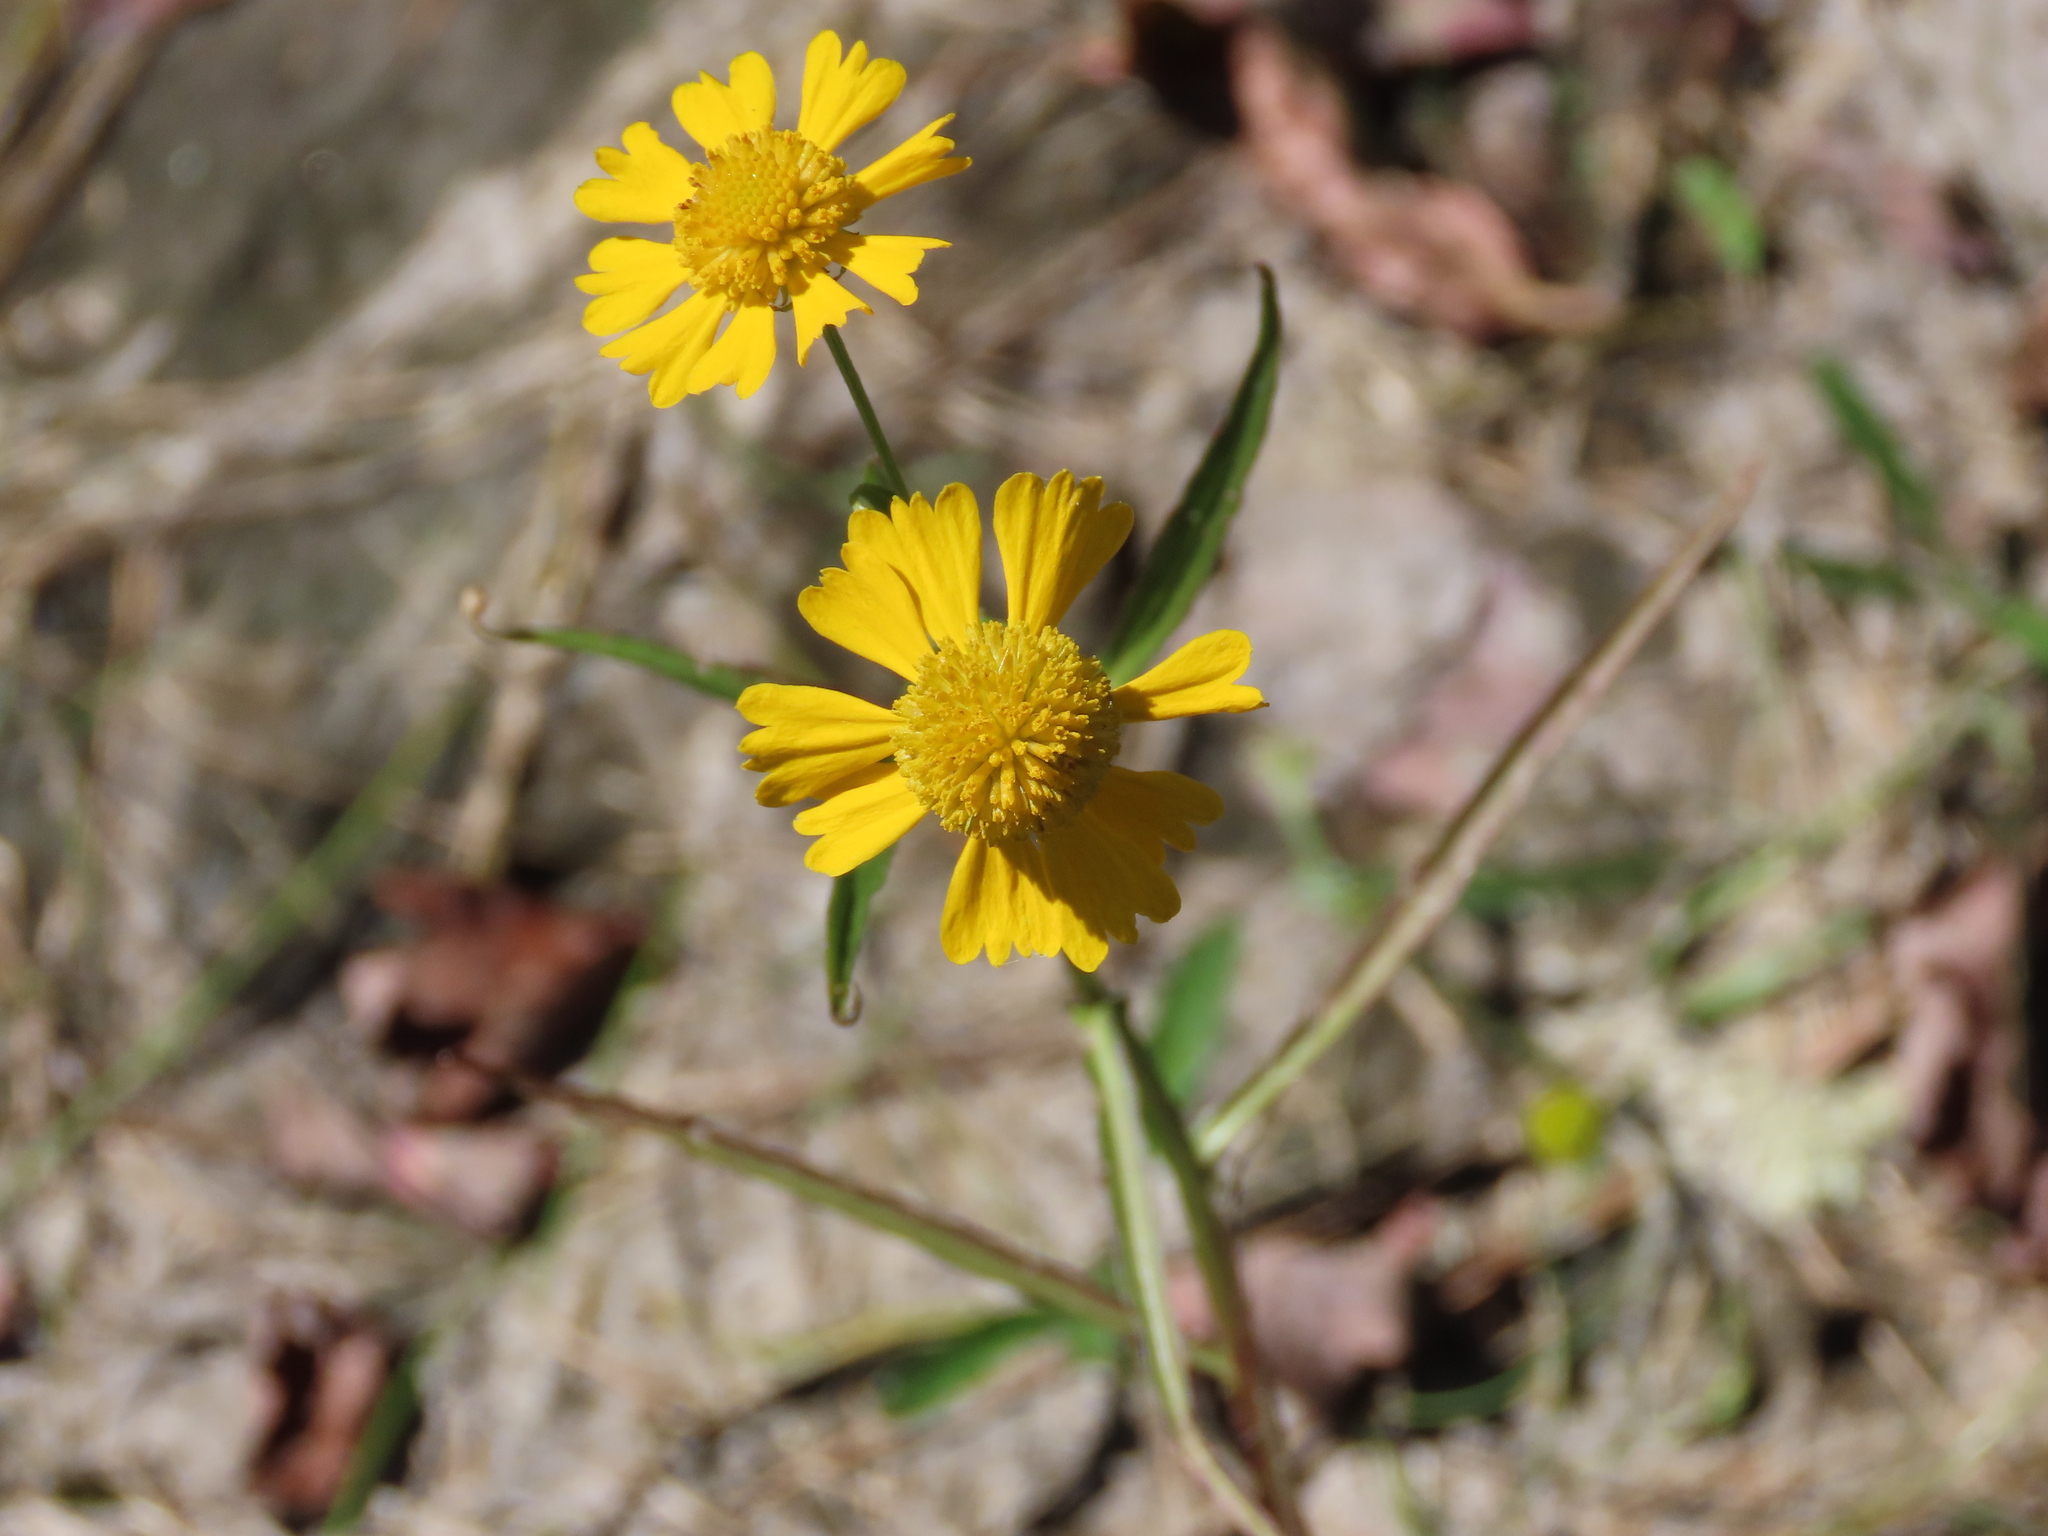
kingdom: Plantae
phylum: Tracheophyta
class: Magnoliopsida
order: Asterales
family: Asteraceae
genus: Helenium
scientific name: Helenium virginicum
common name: Virginia sneezeweed
